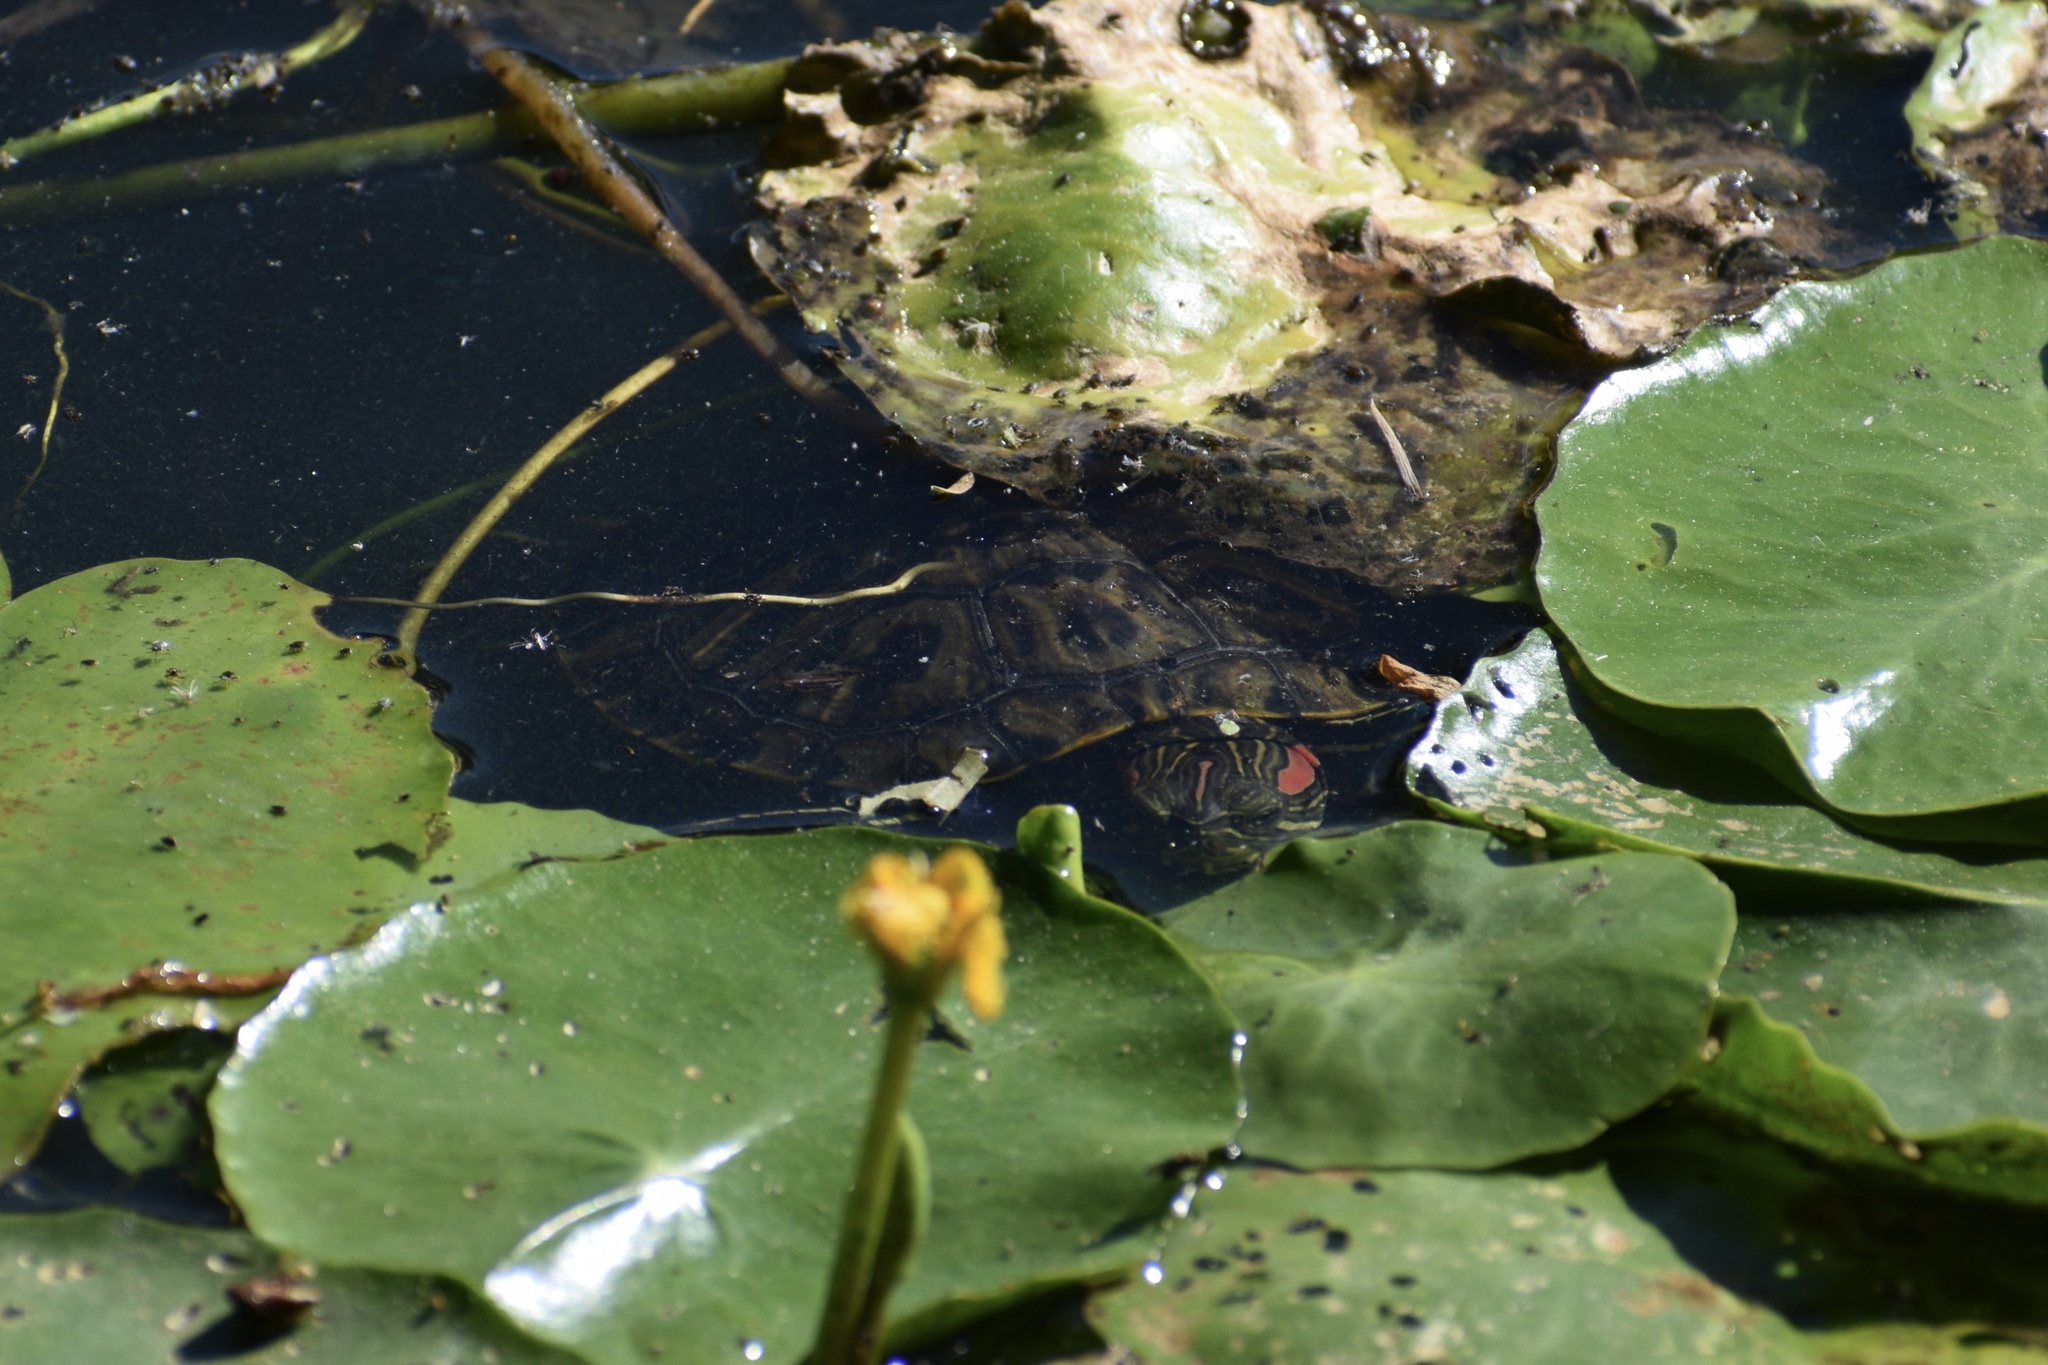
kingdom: Animalia
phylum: Chordata
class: Testudines
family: Emydidae
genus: Trachemys
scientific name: Trachemys scripta
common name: Slider
